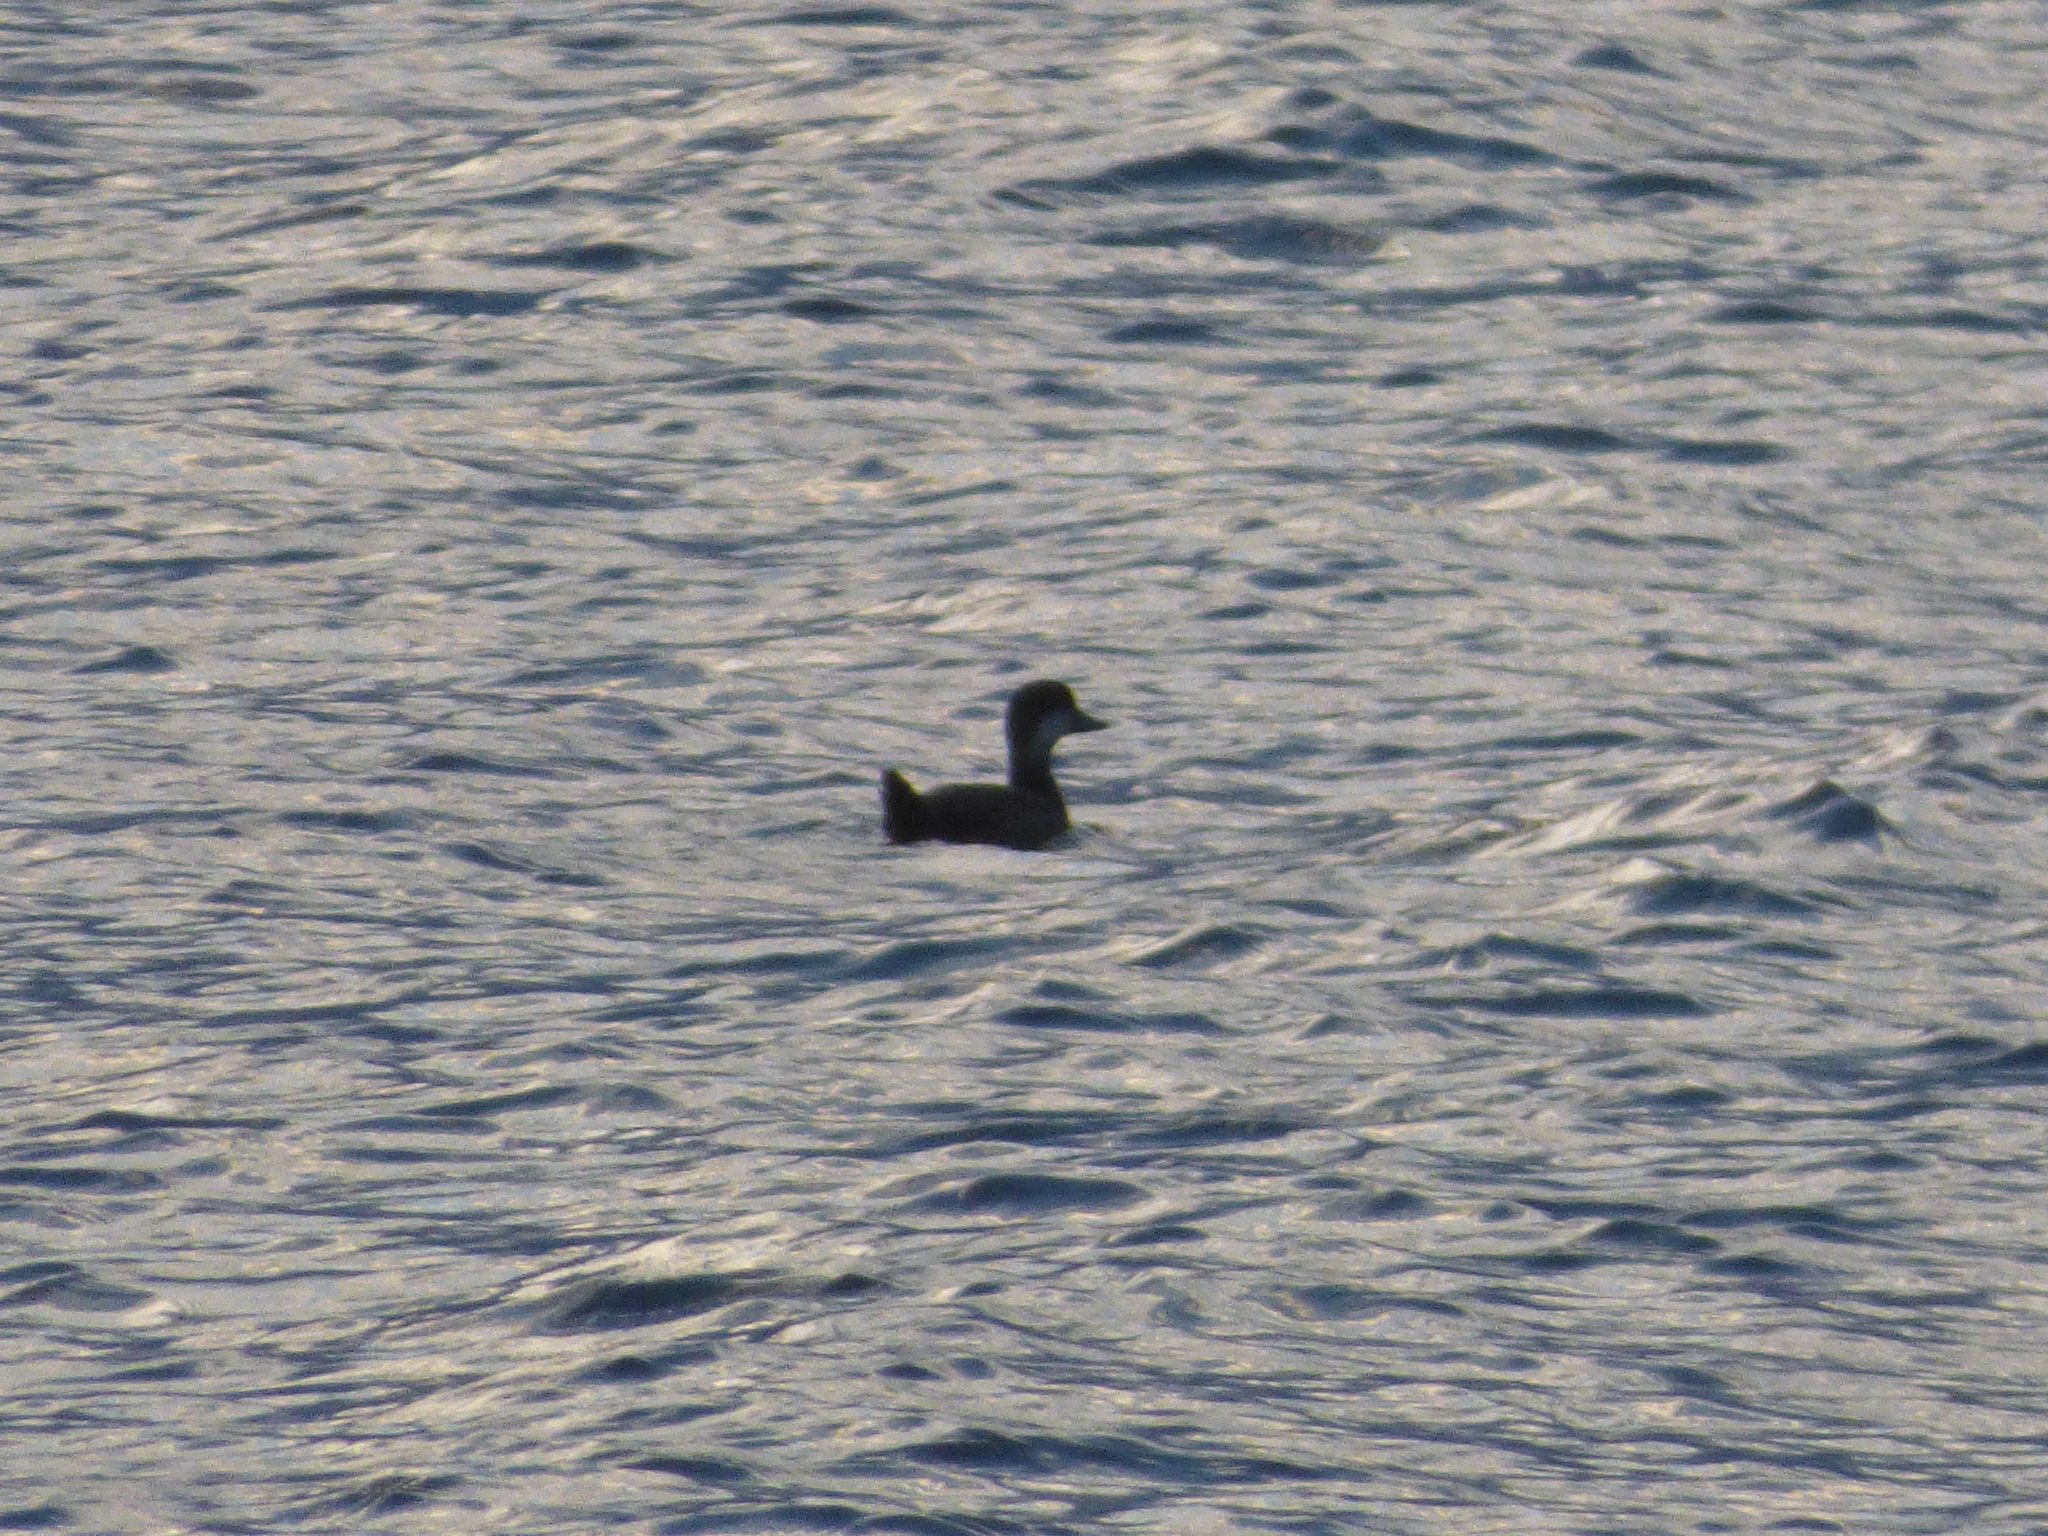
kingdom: Animalia
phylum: Chordata
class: Aves
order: Anseriformes
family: Anatidae
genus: Melanitta
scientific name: Melanitta americana
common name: Black scoter
